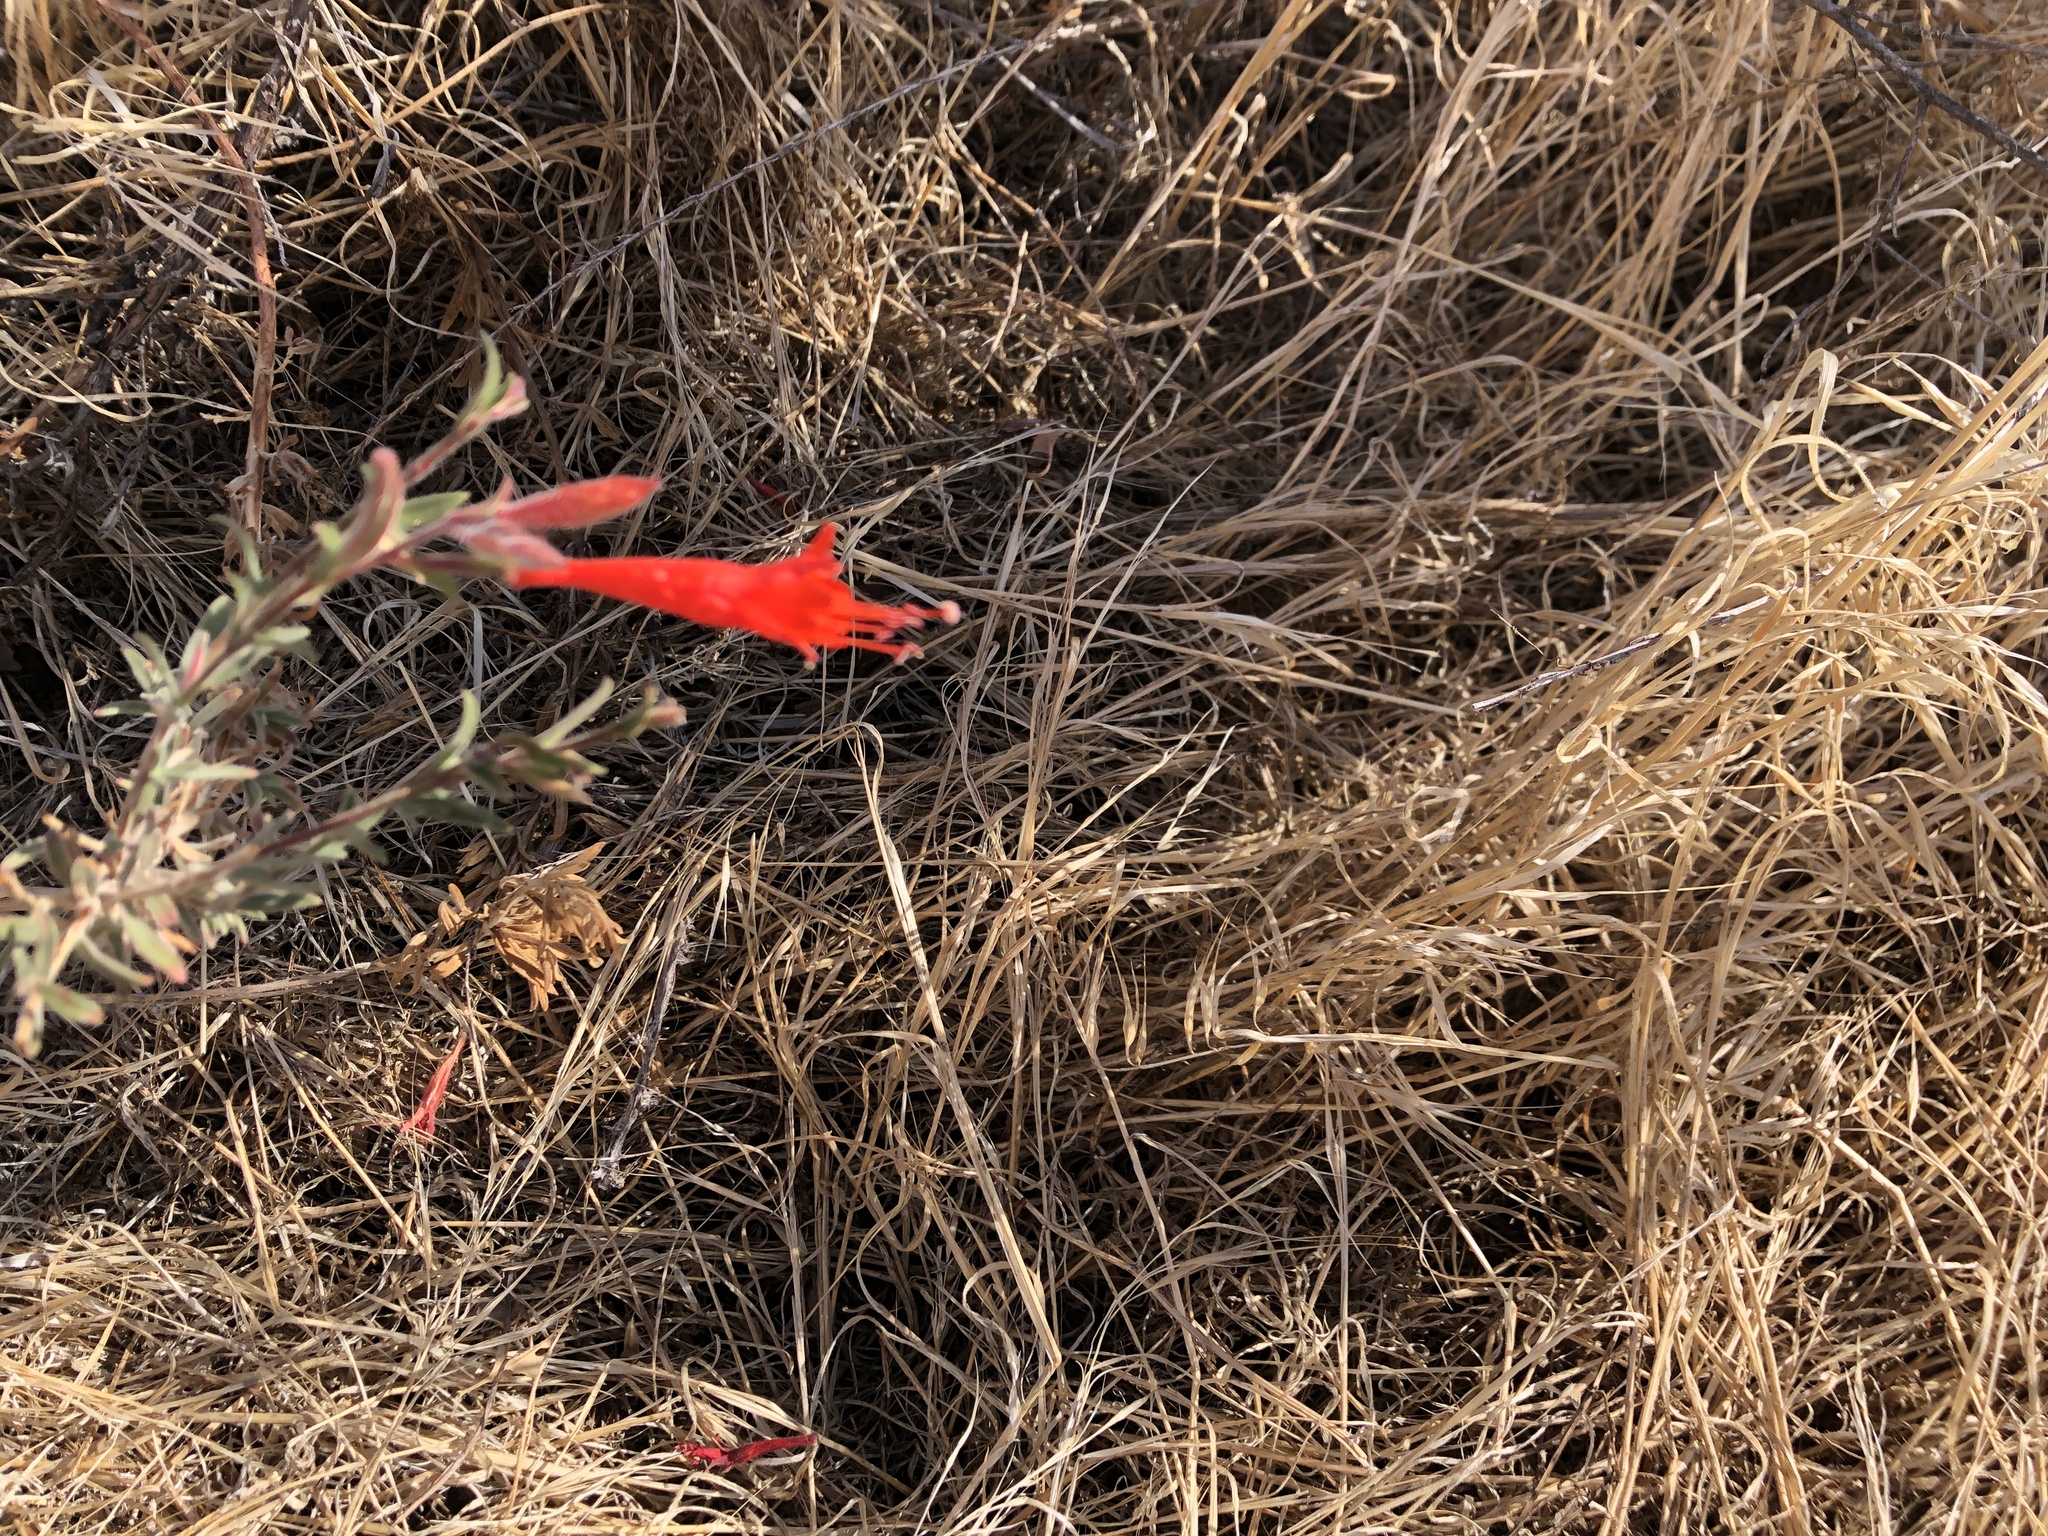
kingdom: Plantae
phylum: Tracheophyta
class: Magnoliopsida
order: Myrtales
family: Onagraceae
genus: Epilobium
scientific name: Epilobium canum
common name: California-fuchsia
